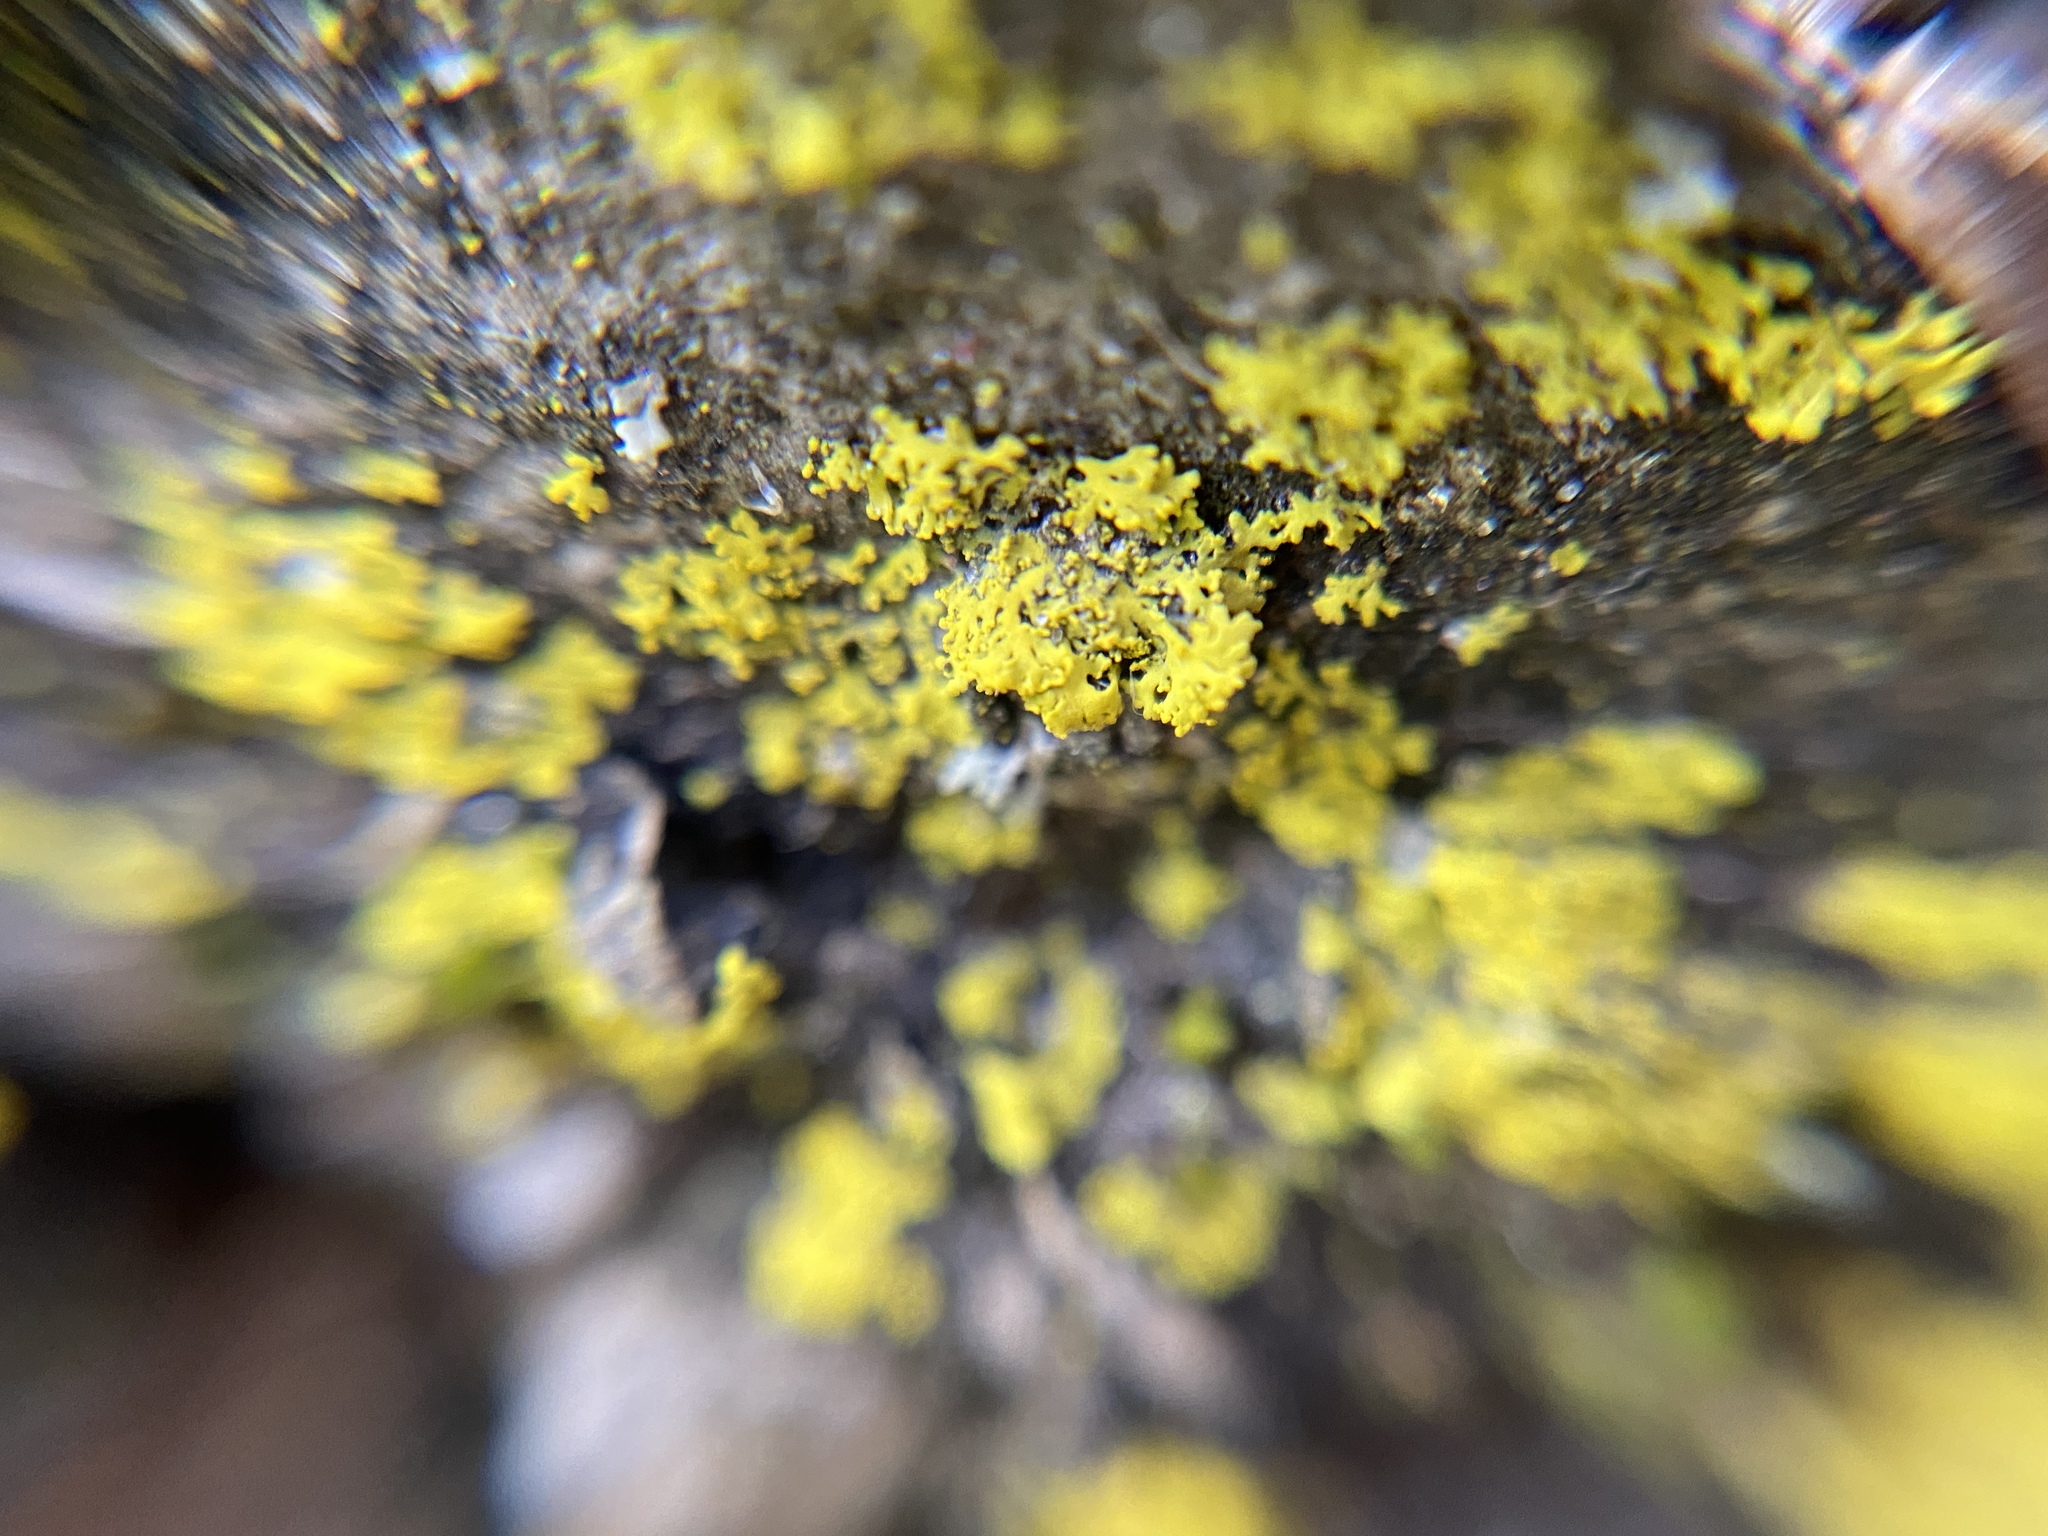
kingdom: Fungi
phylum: Ascomycota
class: Candelariomycetes
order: Candelariales
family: Candelariaceae
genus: Candelaria
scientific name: Candelaria concolor
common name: Candleflame lichen
